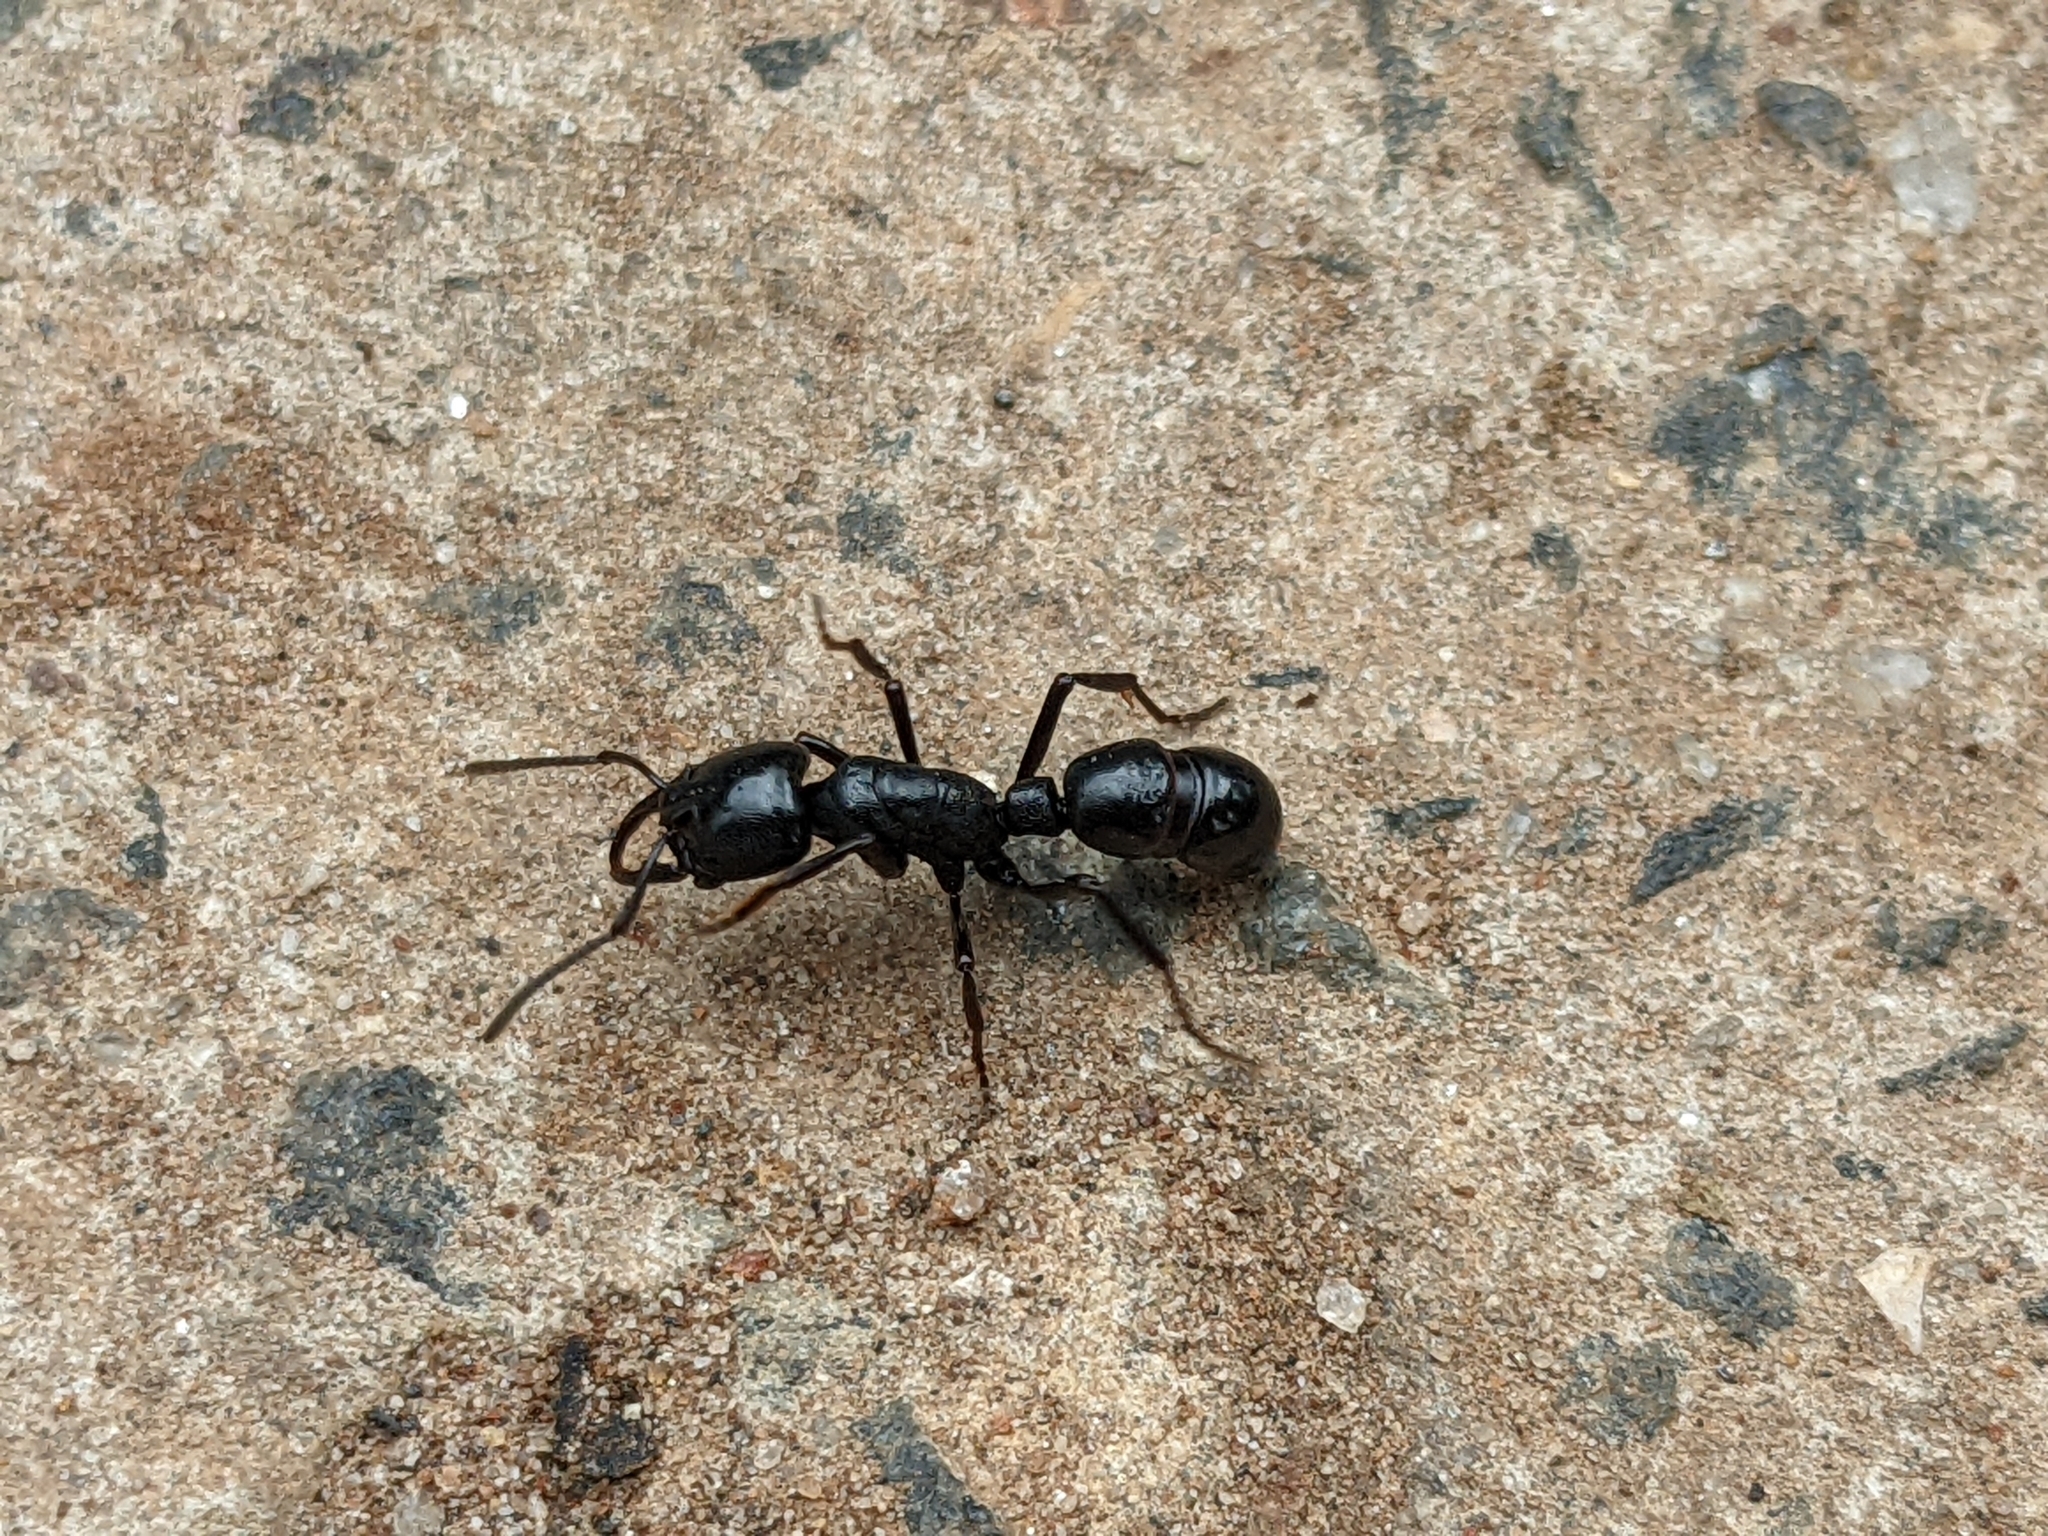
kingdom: Animalia
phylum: Arthropoda
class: Insecta
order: Hymenoptera
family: Formicidae
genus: Plectroctena
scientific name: Plectroctena mandibularis
